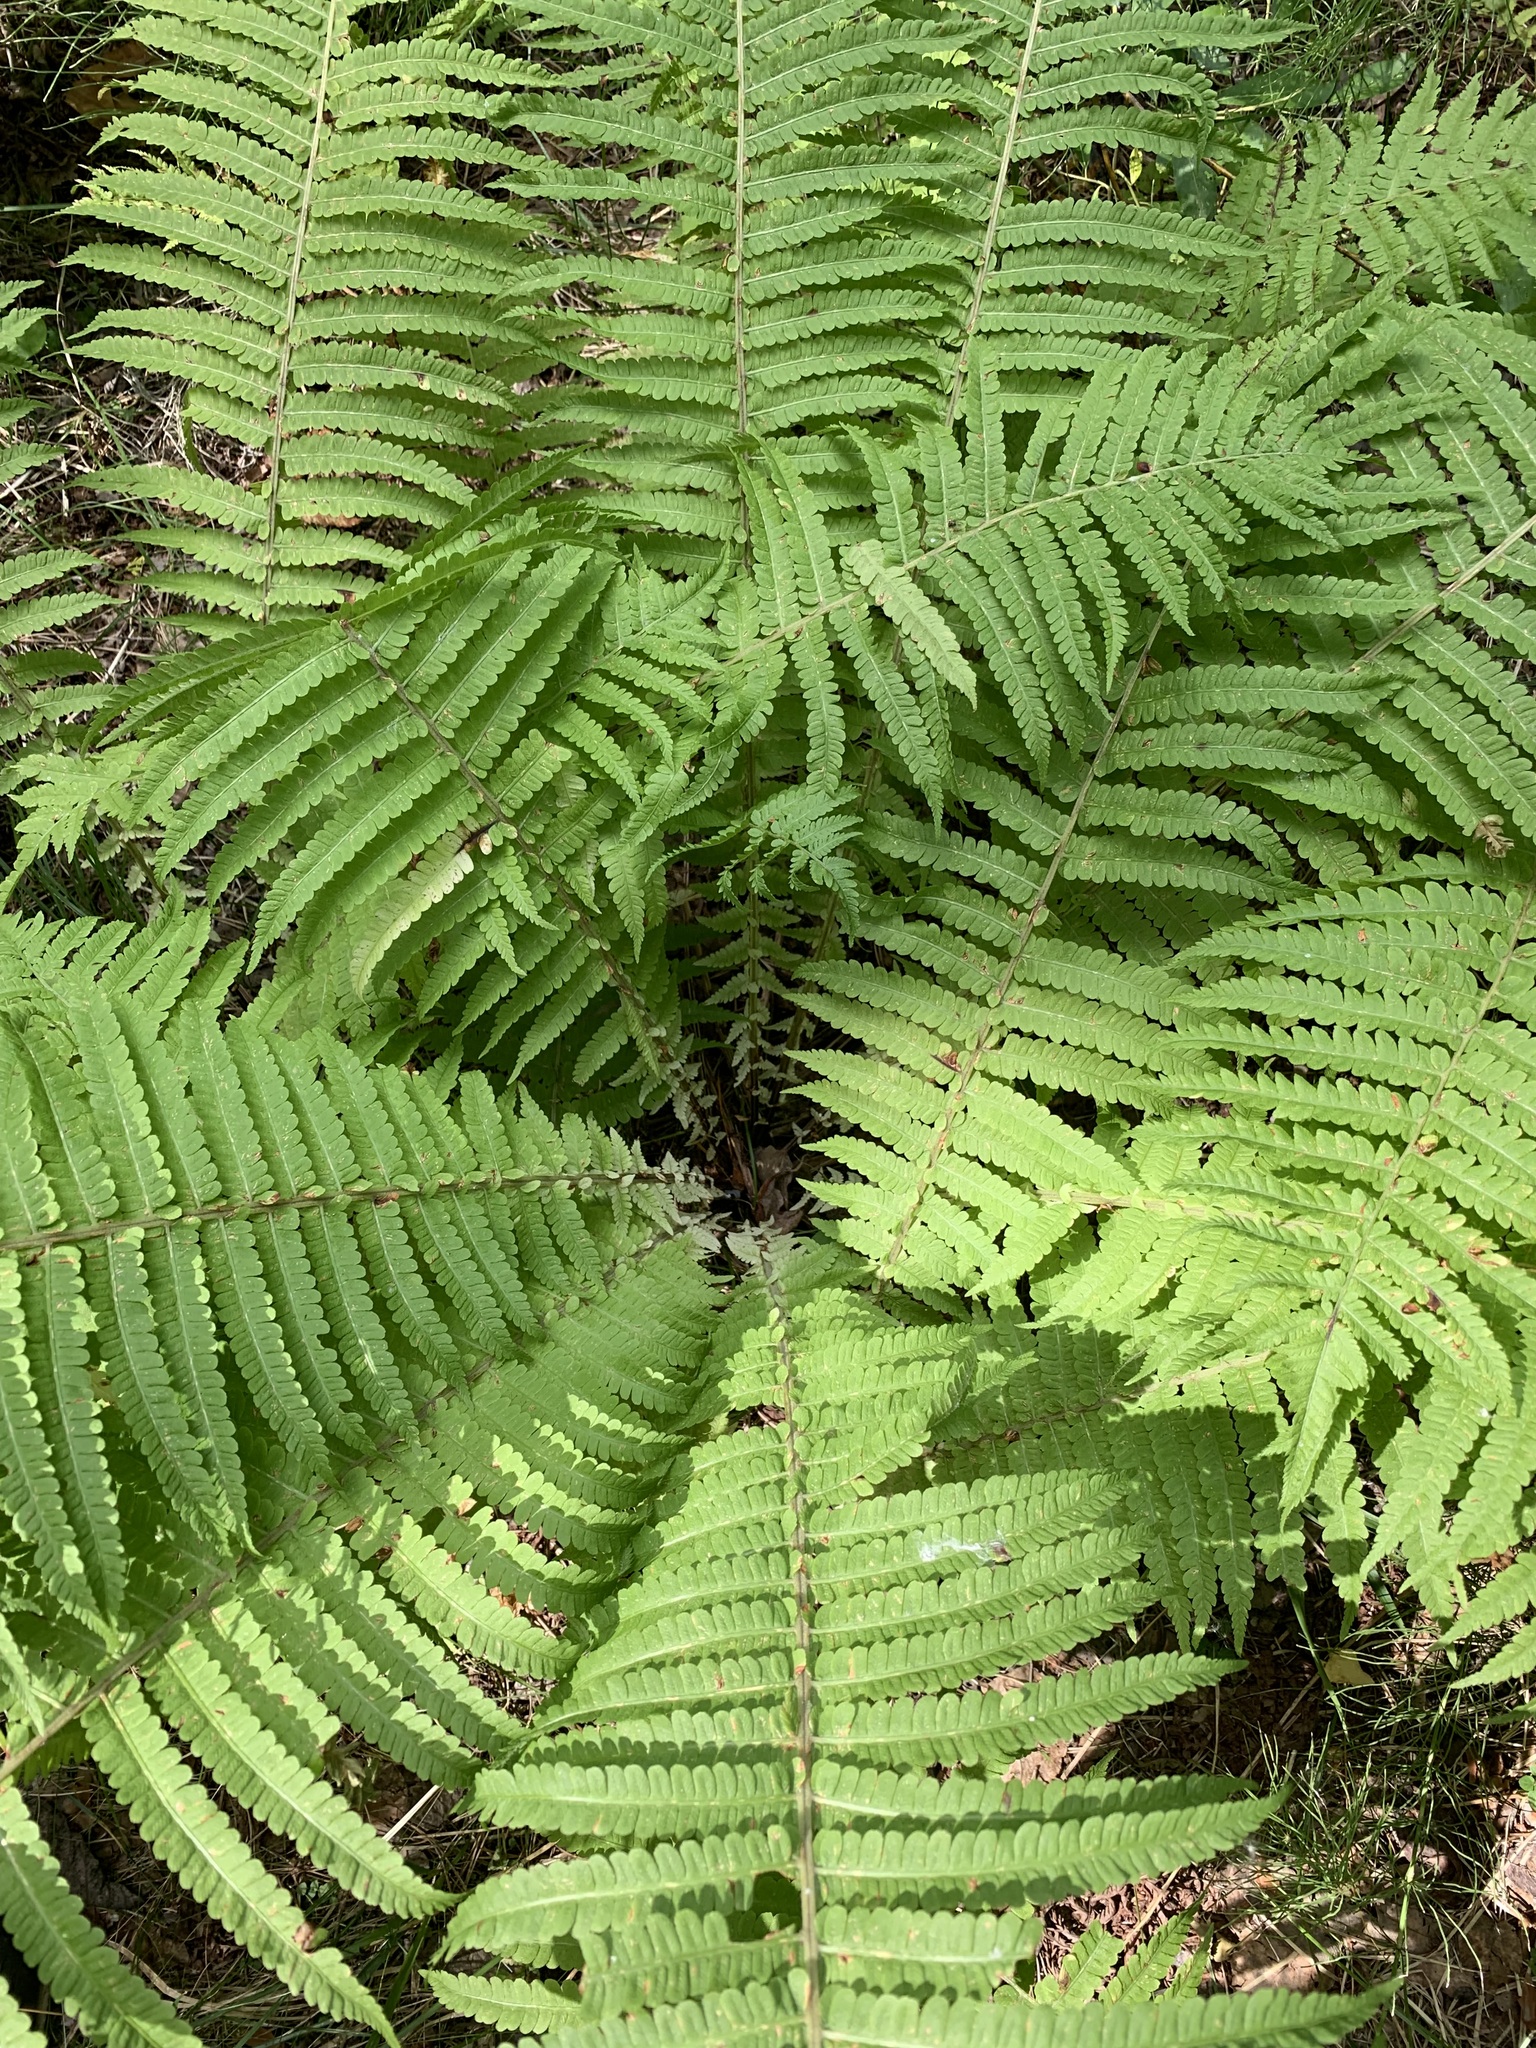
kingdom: Plantae
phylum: Tracheophyta
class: Polypodiopsida
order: Polypodiales
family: Onocleaceae
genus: Matteuccia
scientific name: Matteuccia struthiopteris
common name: Ostrich fern
